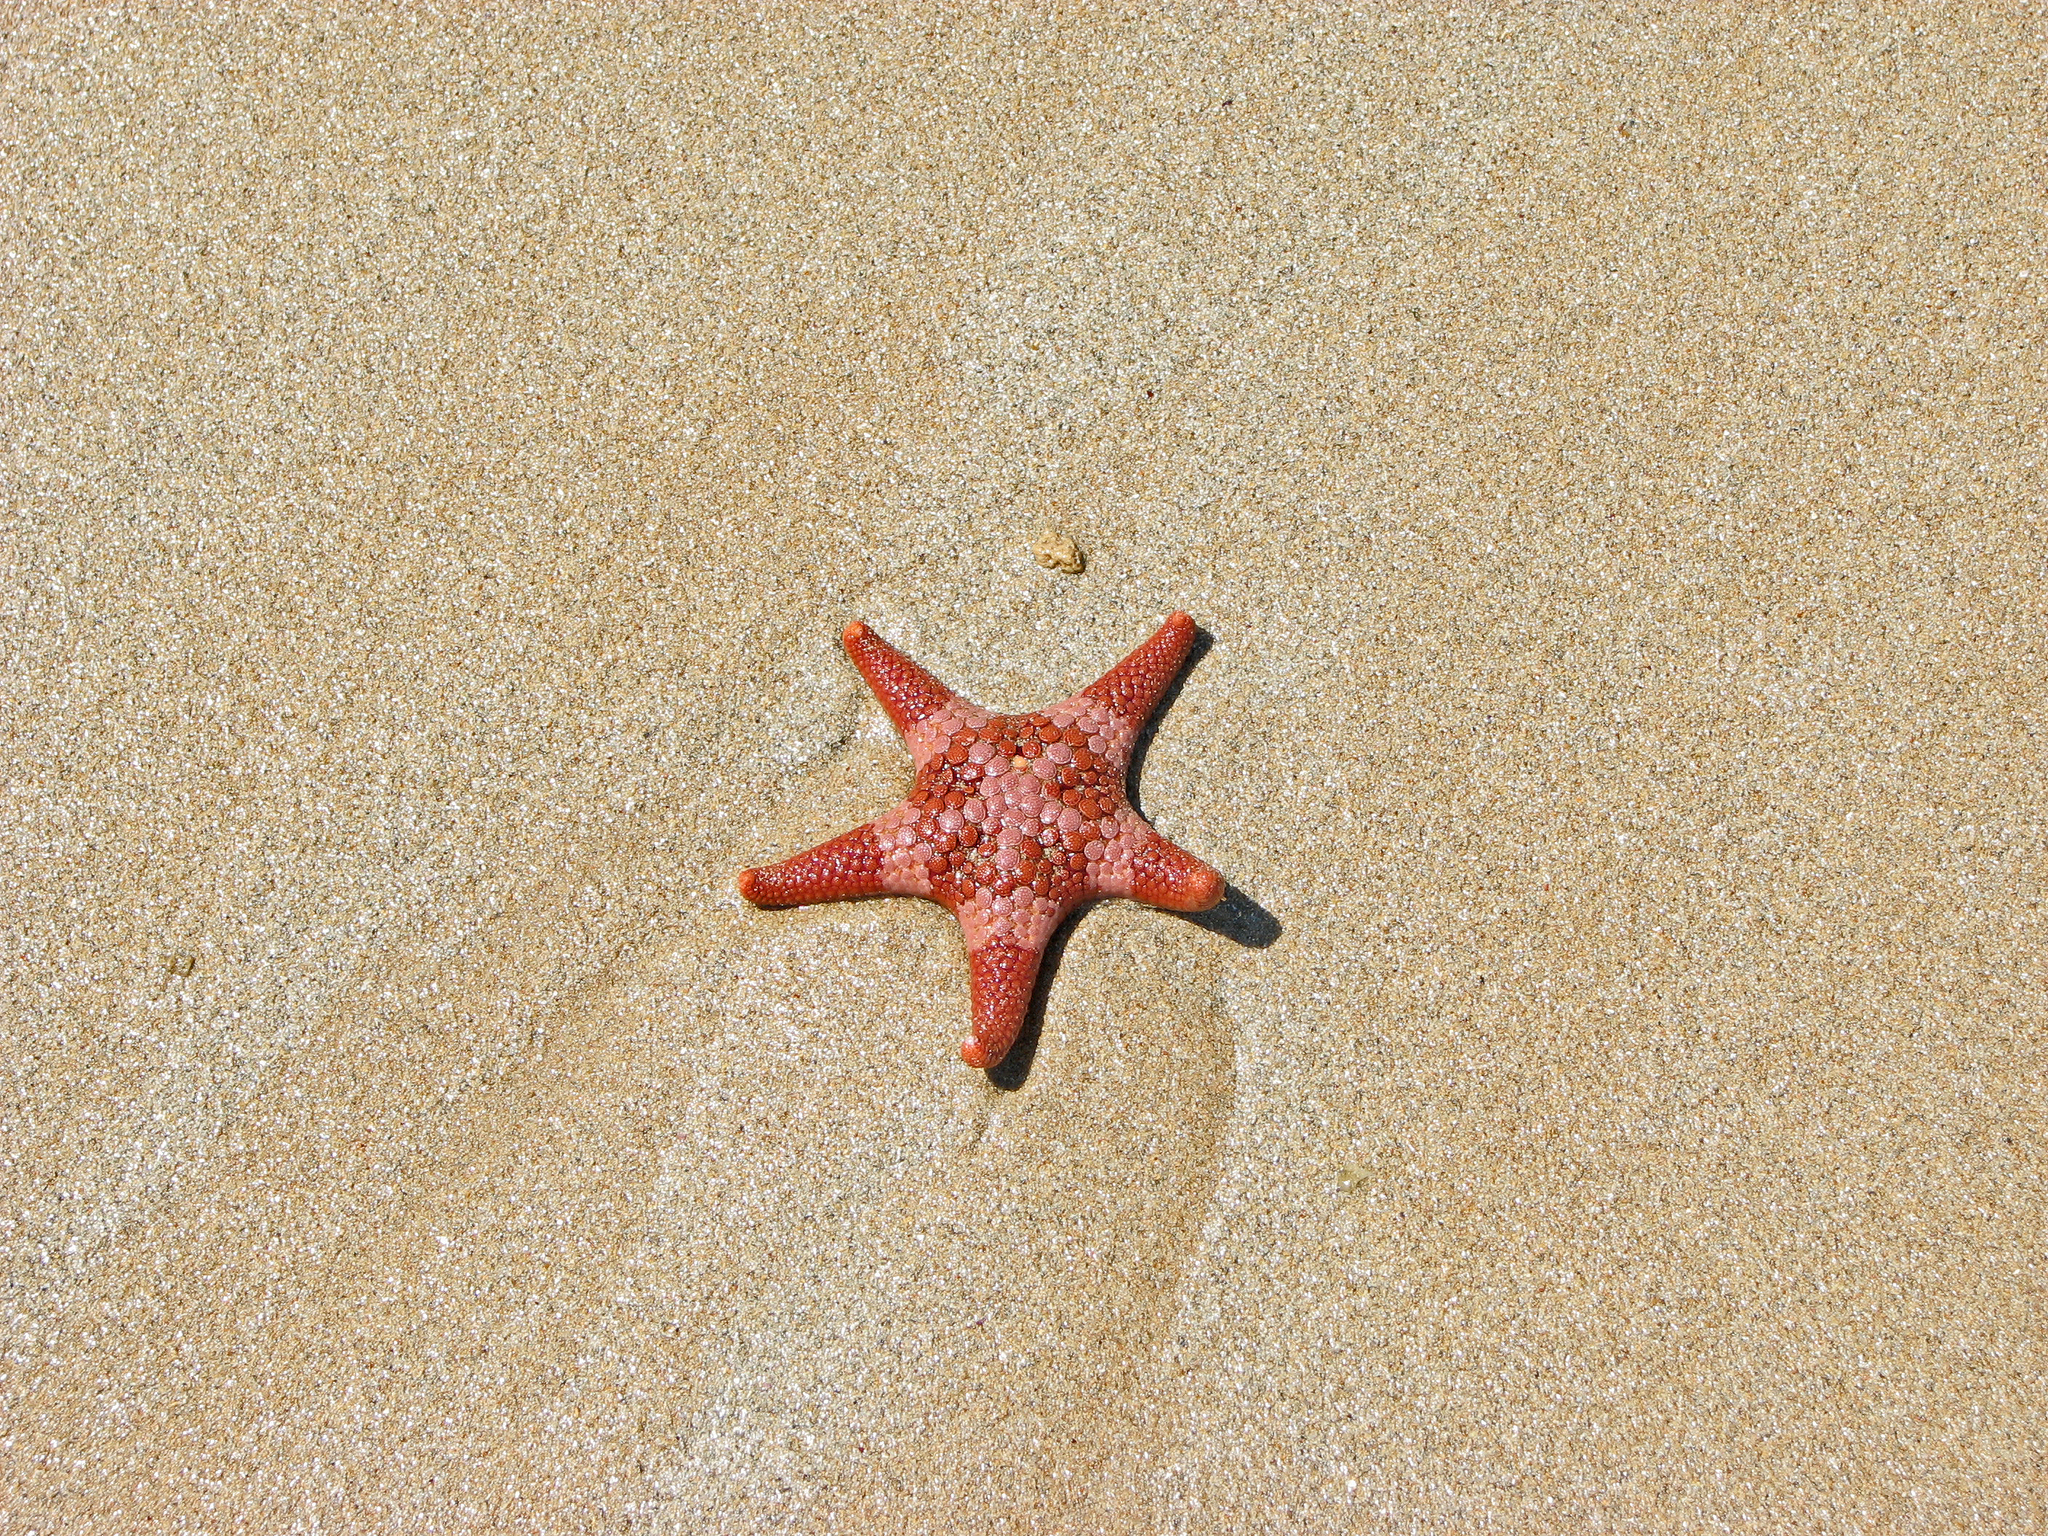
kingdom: Animalia
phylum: Echinodermata
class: Asteroidea
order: Valvatida
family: Goniasteridae
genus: Nectria
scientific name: Nectria ocellata
